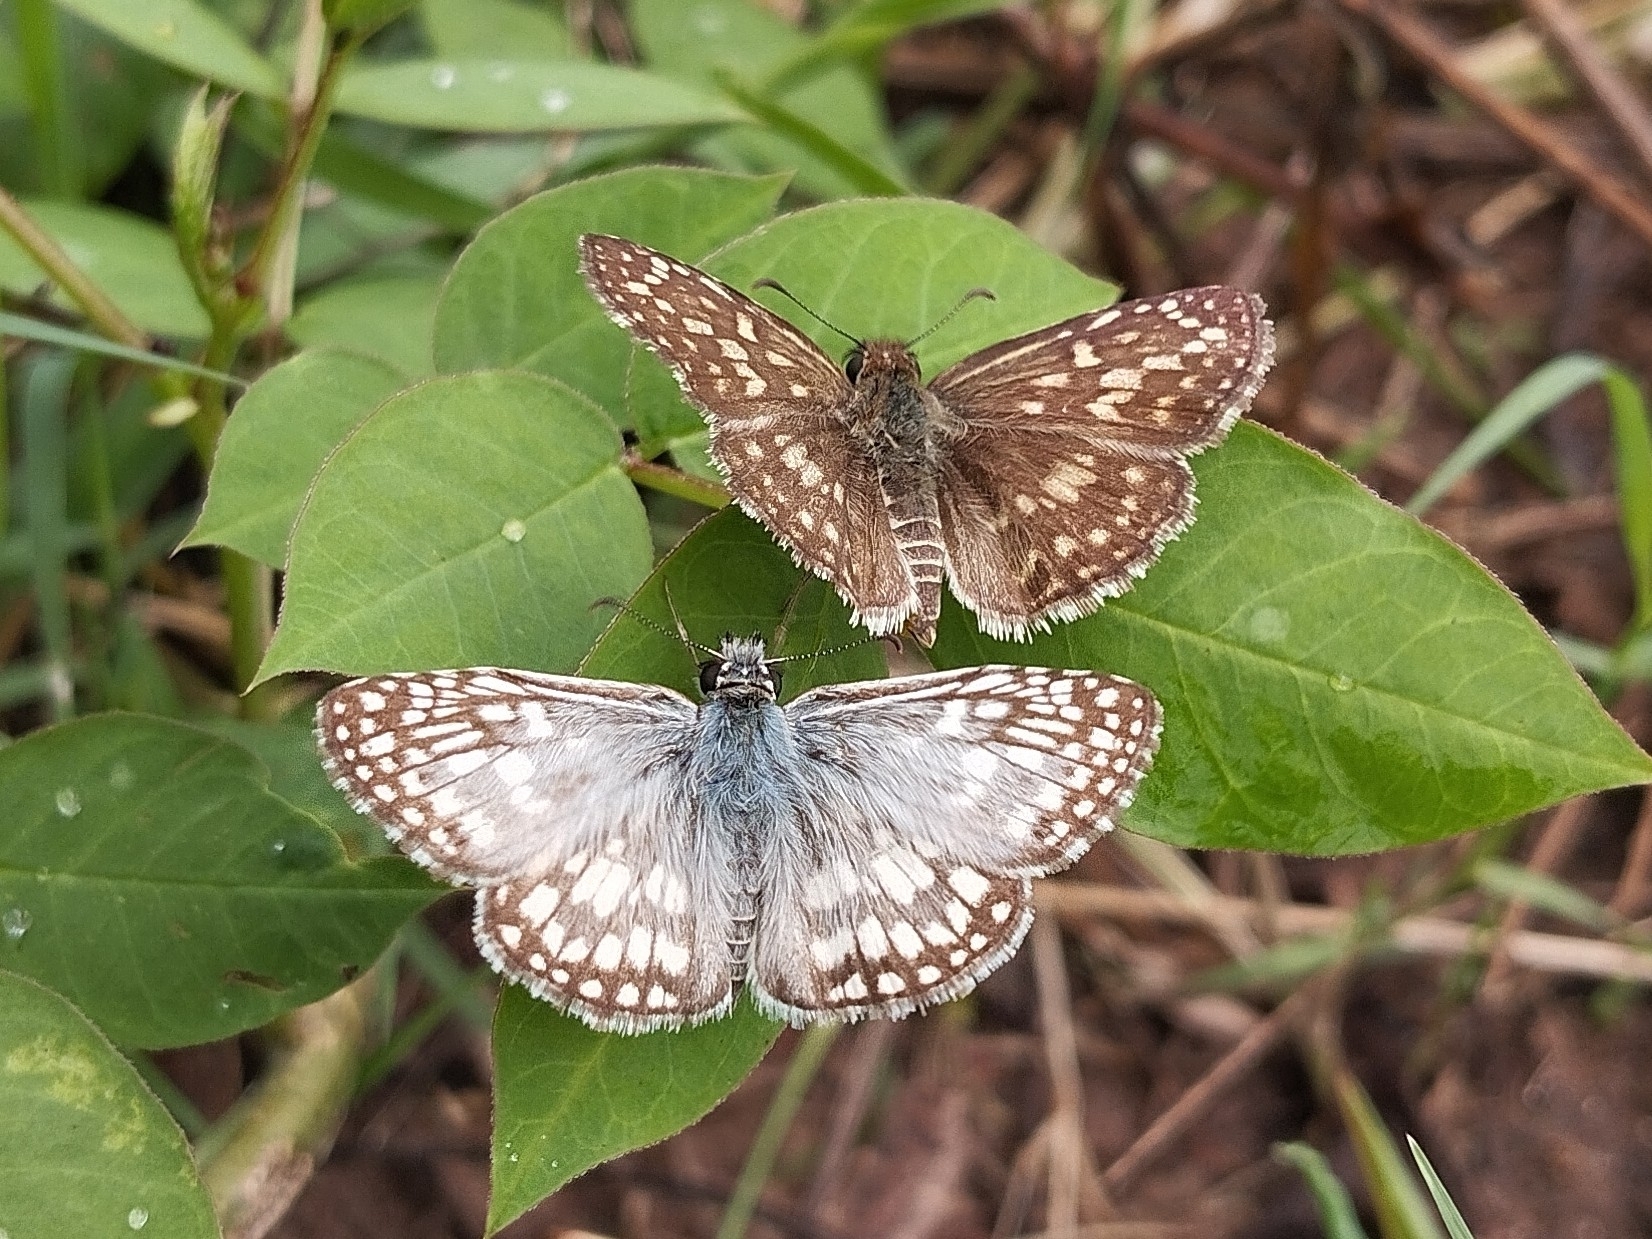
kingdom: Animalia
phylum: Arthropoda
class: Insecta
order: Lepidoptera
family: Hesperiidae
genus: Pyrgus
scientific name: Pyrgus oileus
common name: Tropical checkered-skipper
